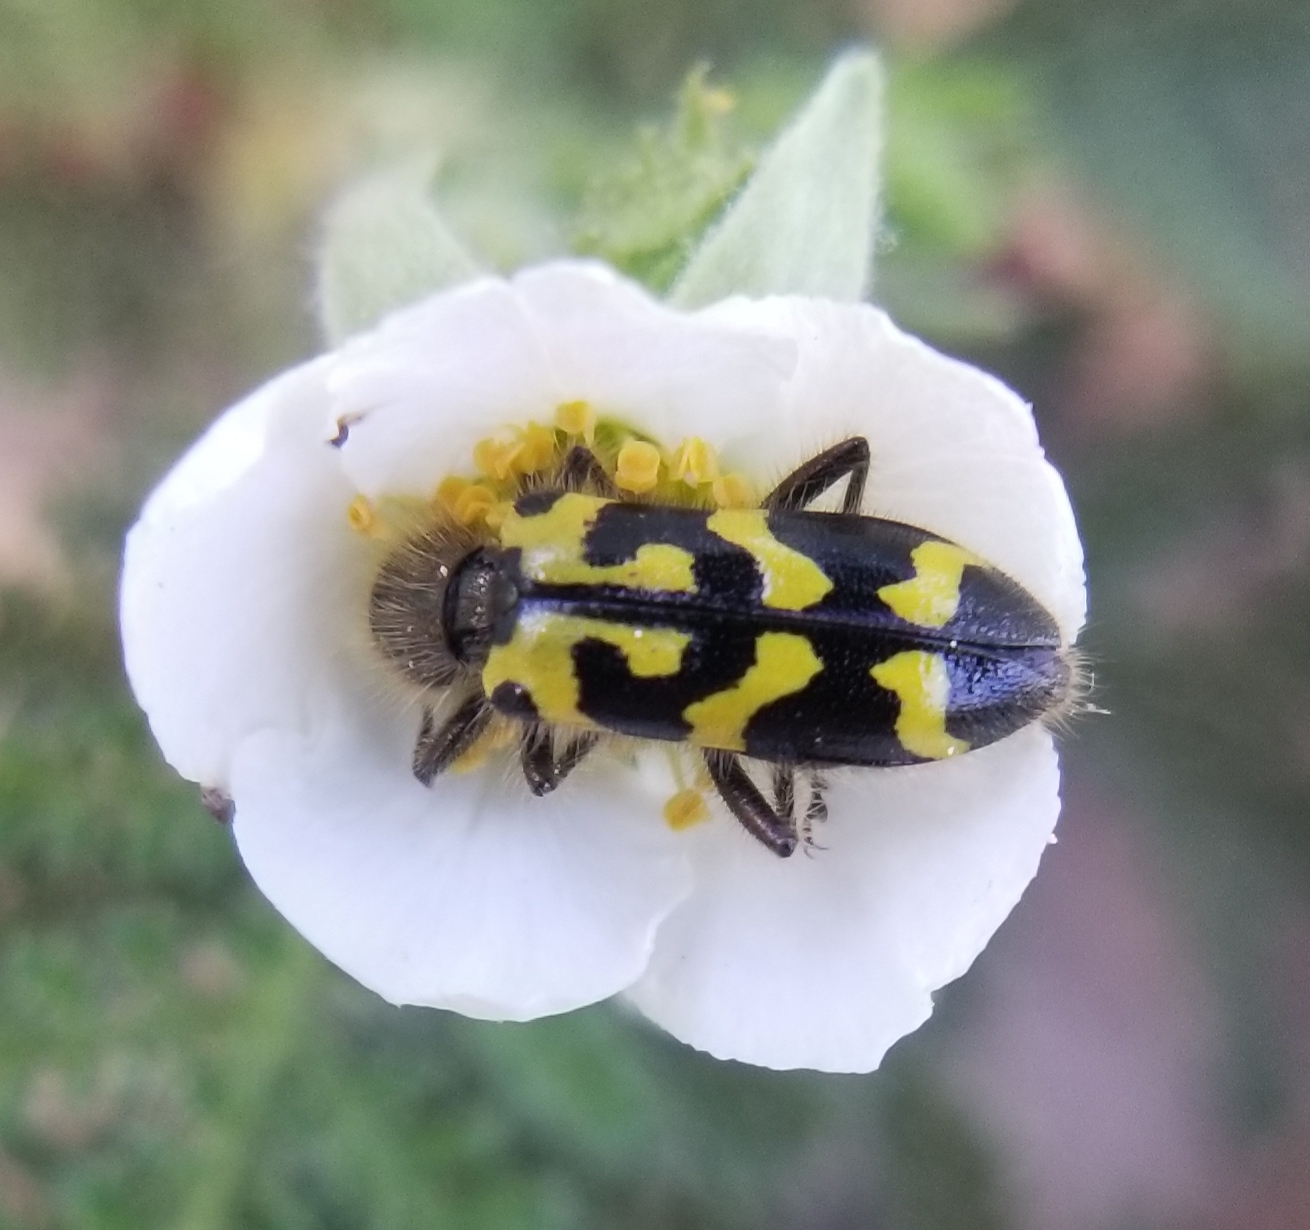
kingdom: Animalia
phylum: Arthropoda
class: Insecta
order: Coleoptera
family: Cleridae
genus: Trichodes
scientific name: Trichodes ornatus
